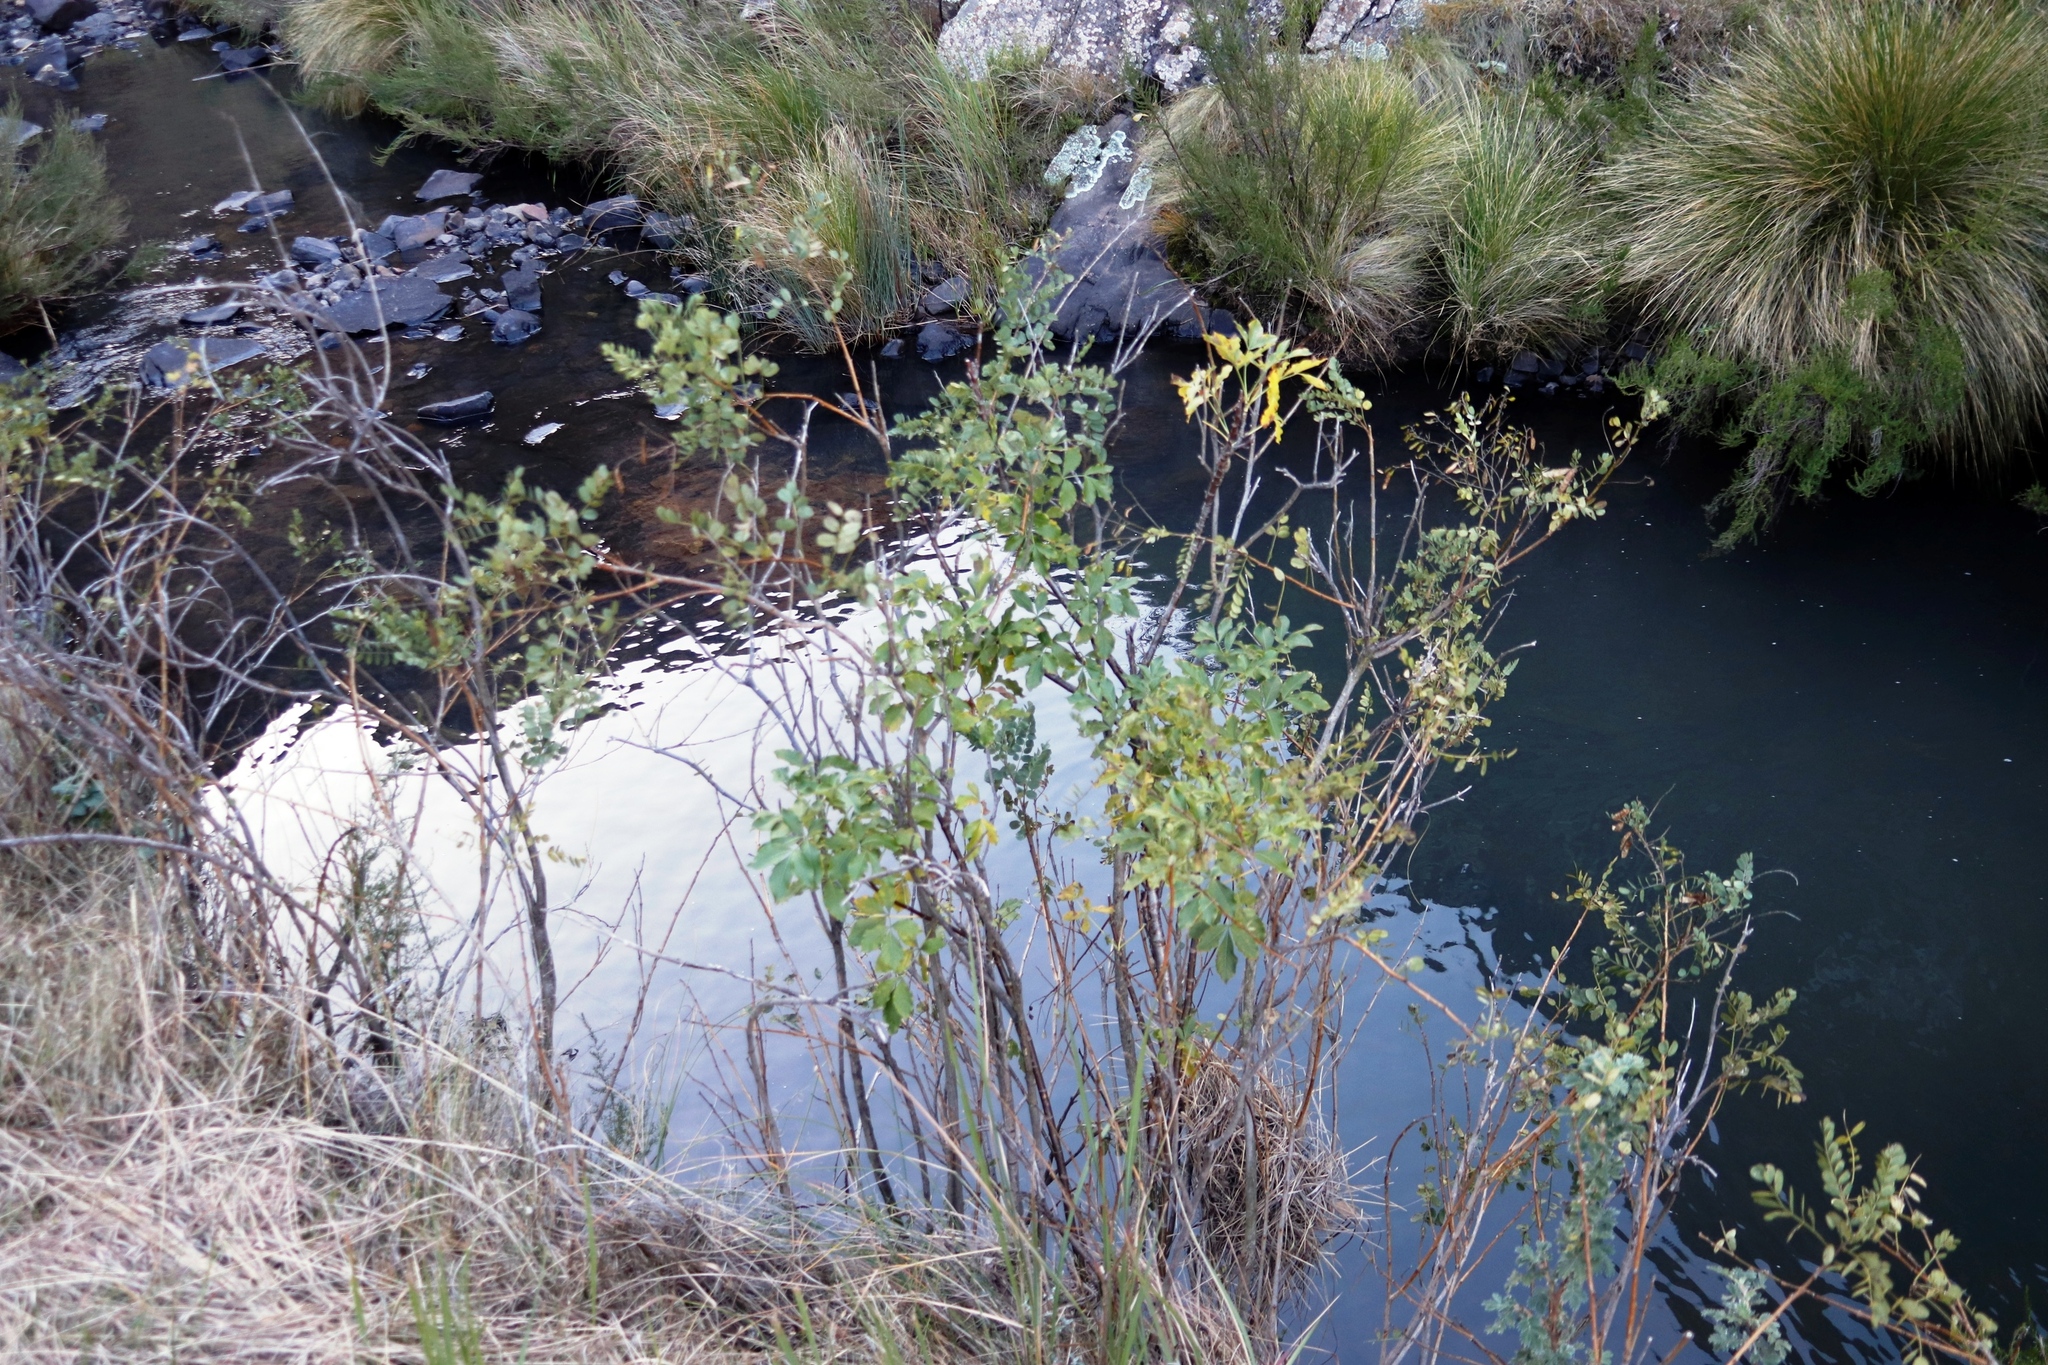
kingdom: Plantae
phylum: Tracheophyta
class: Magnoliopsida
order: Fabales
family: Fabaceae
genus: Calpurnia
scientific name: Calpurnia sericea
